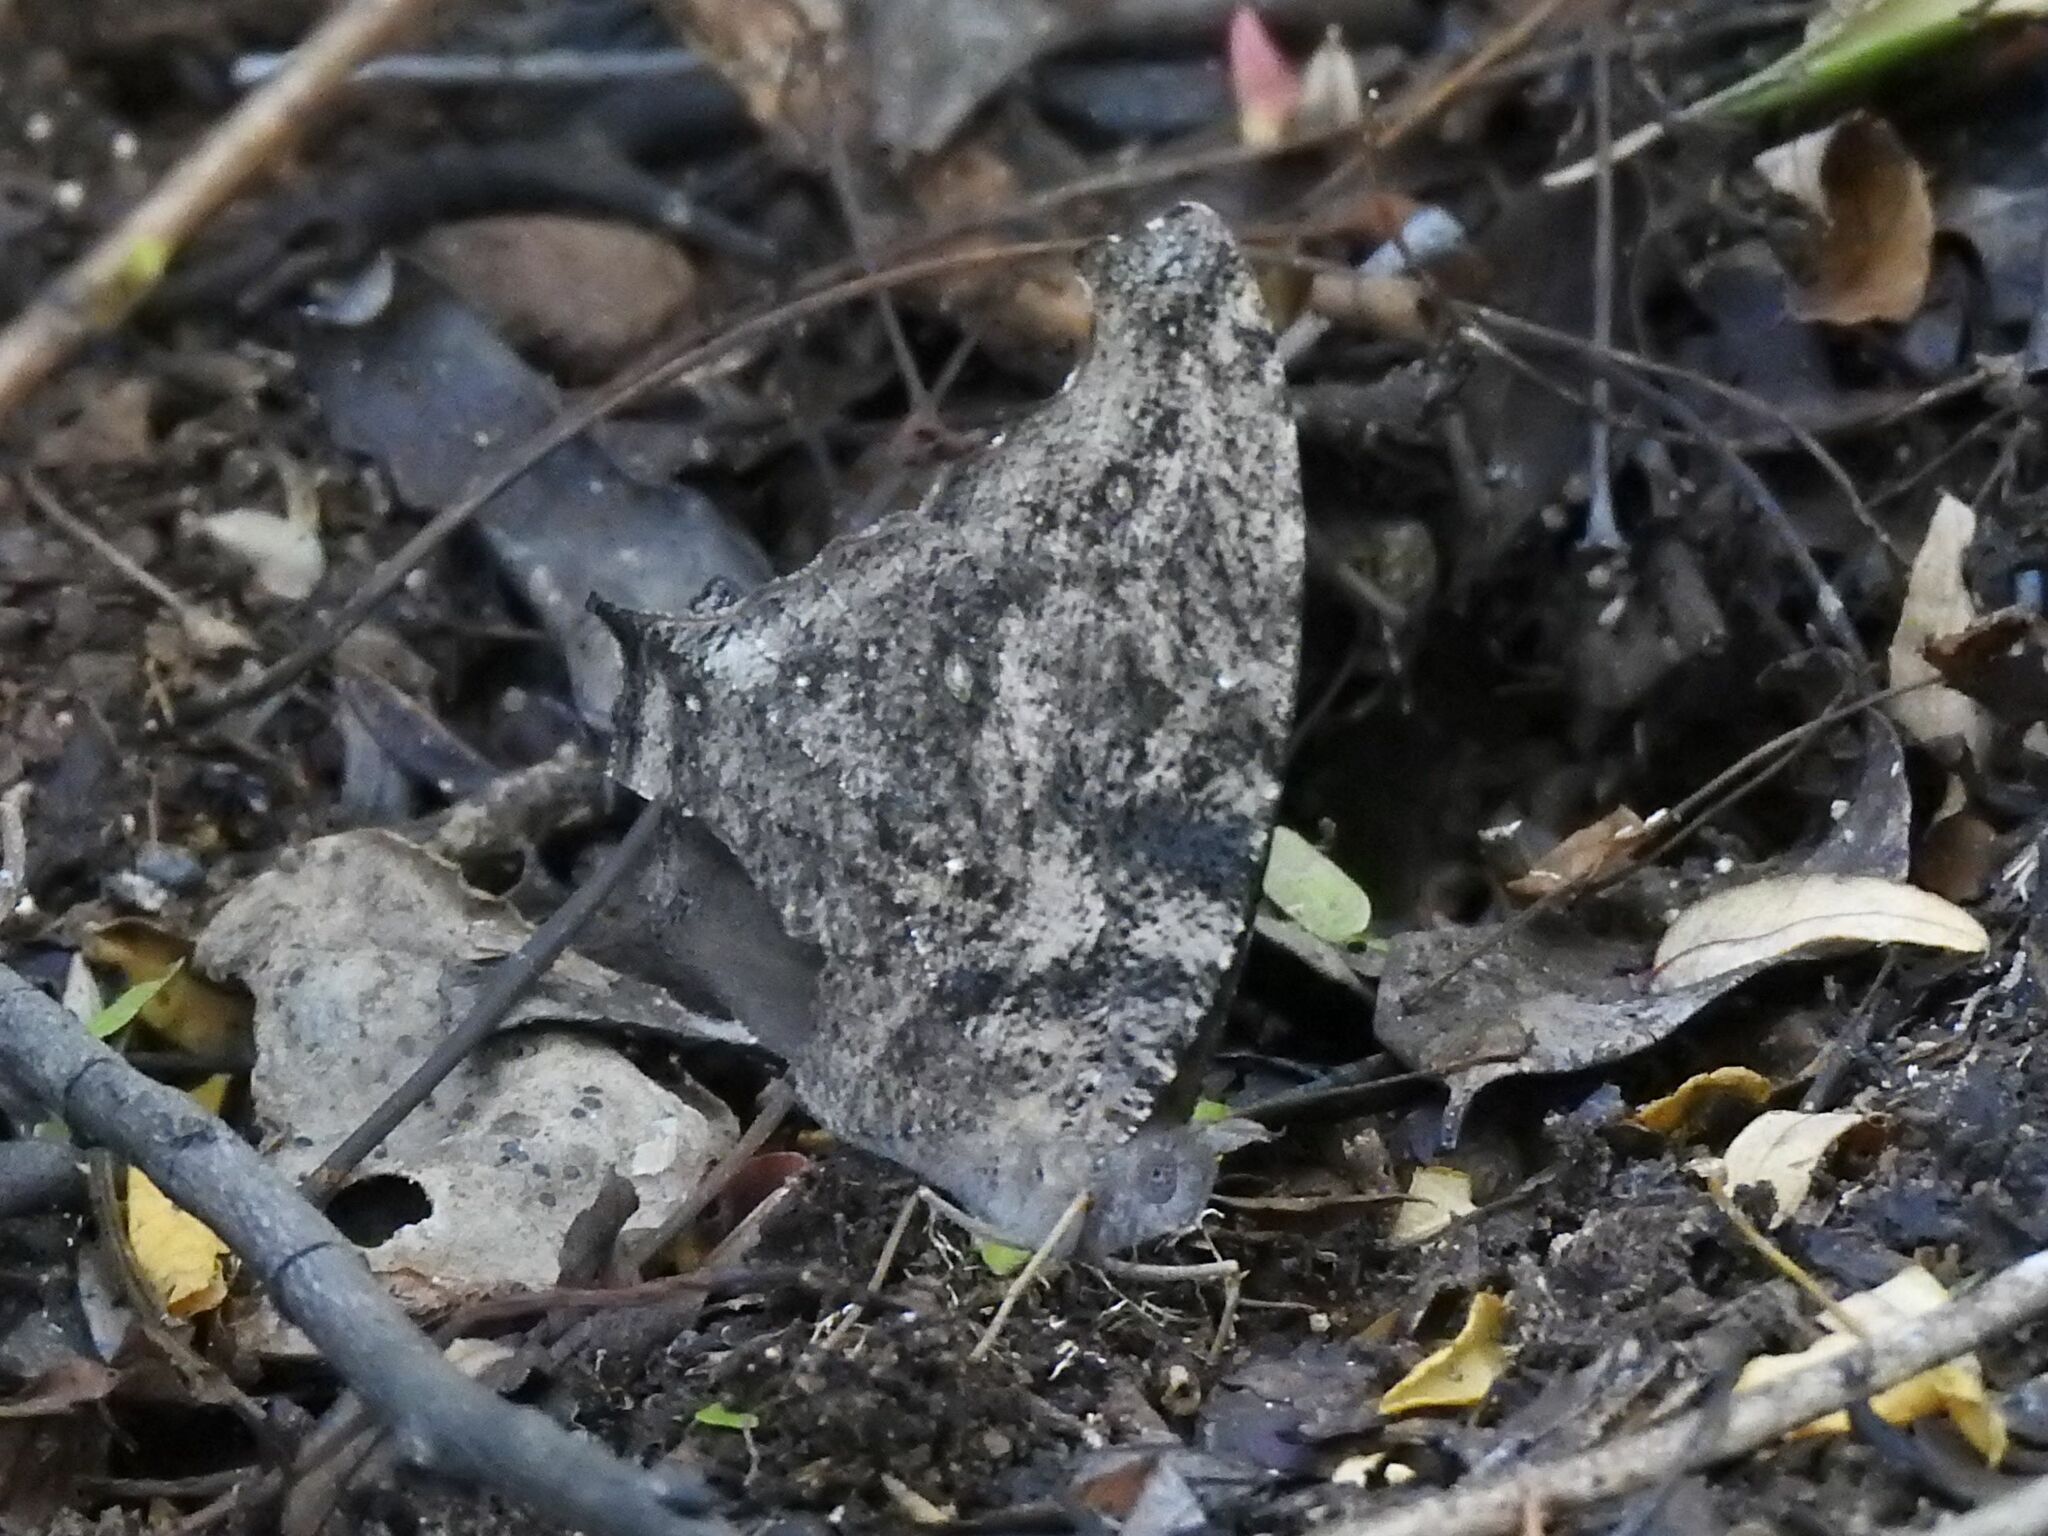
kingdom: Animalia
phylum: Arthropoda
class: Insecta
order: Lepidoptera
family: Nymphalidae
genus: Melanitis
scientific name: Melanitis leda
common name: Twilight brown
